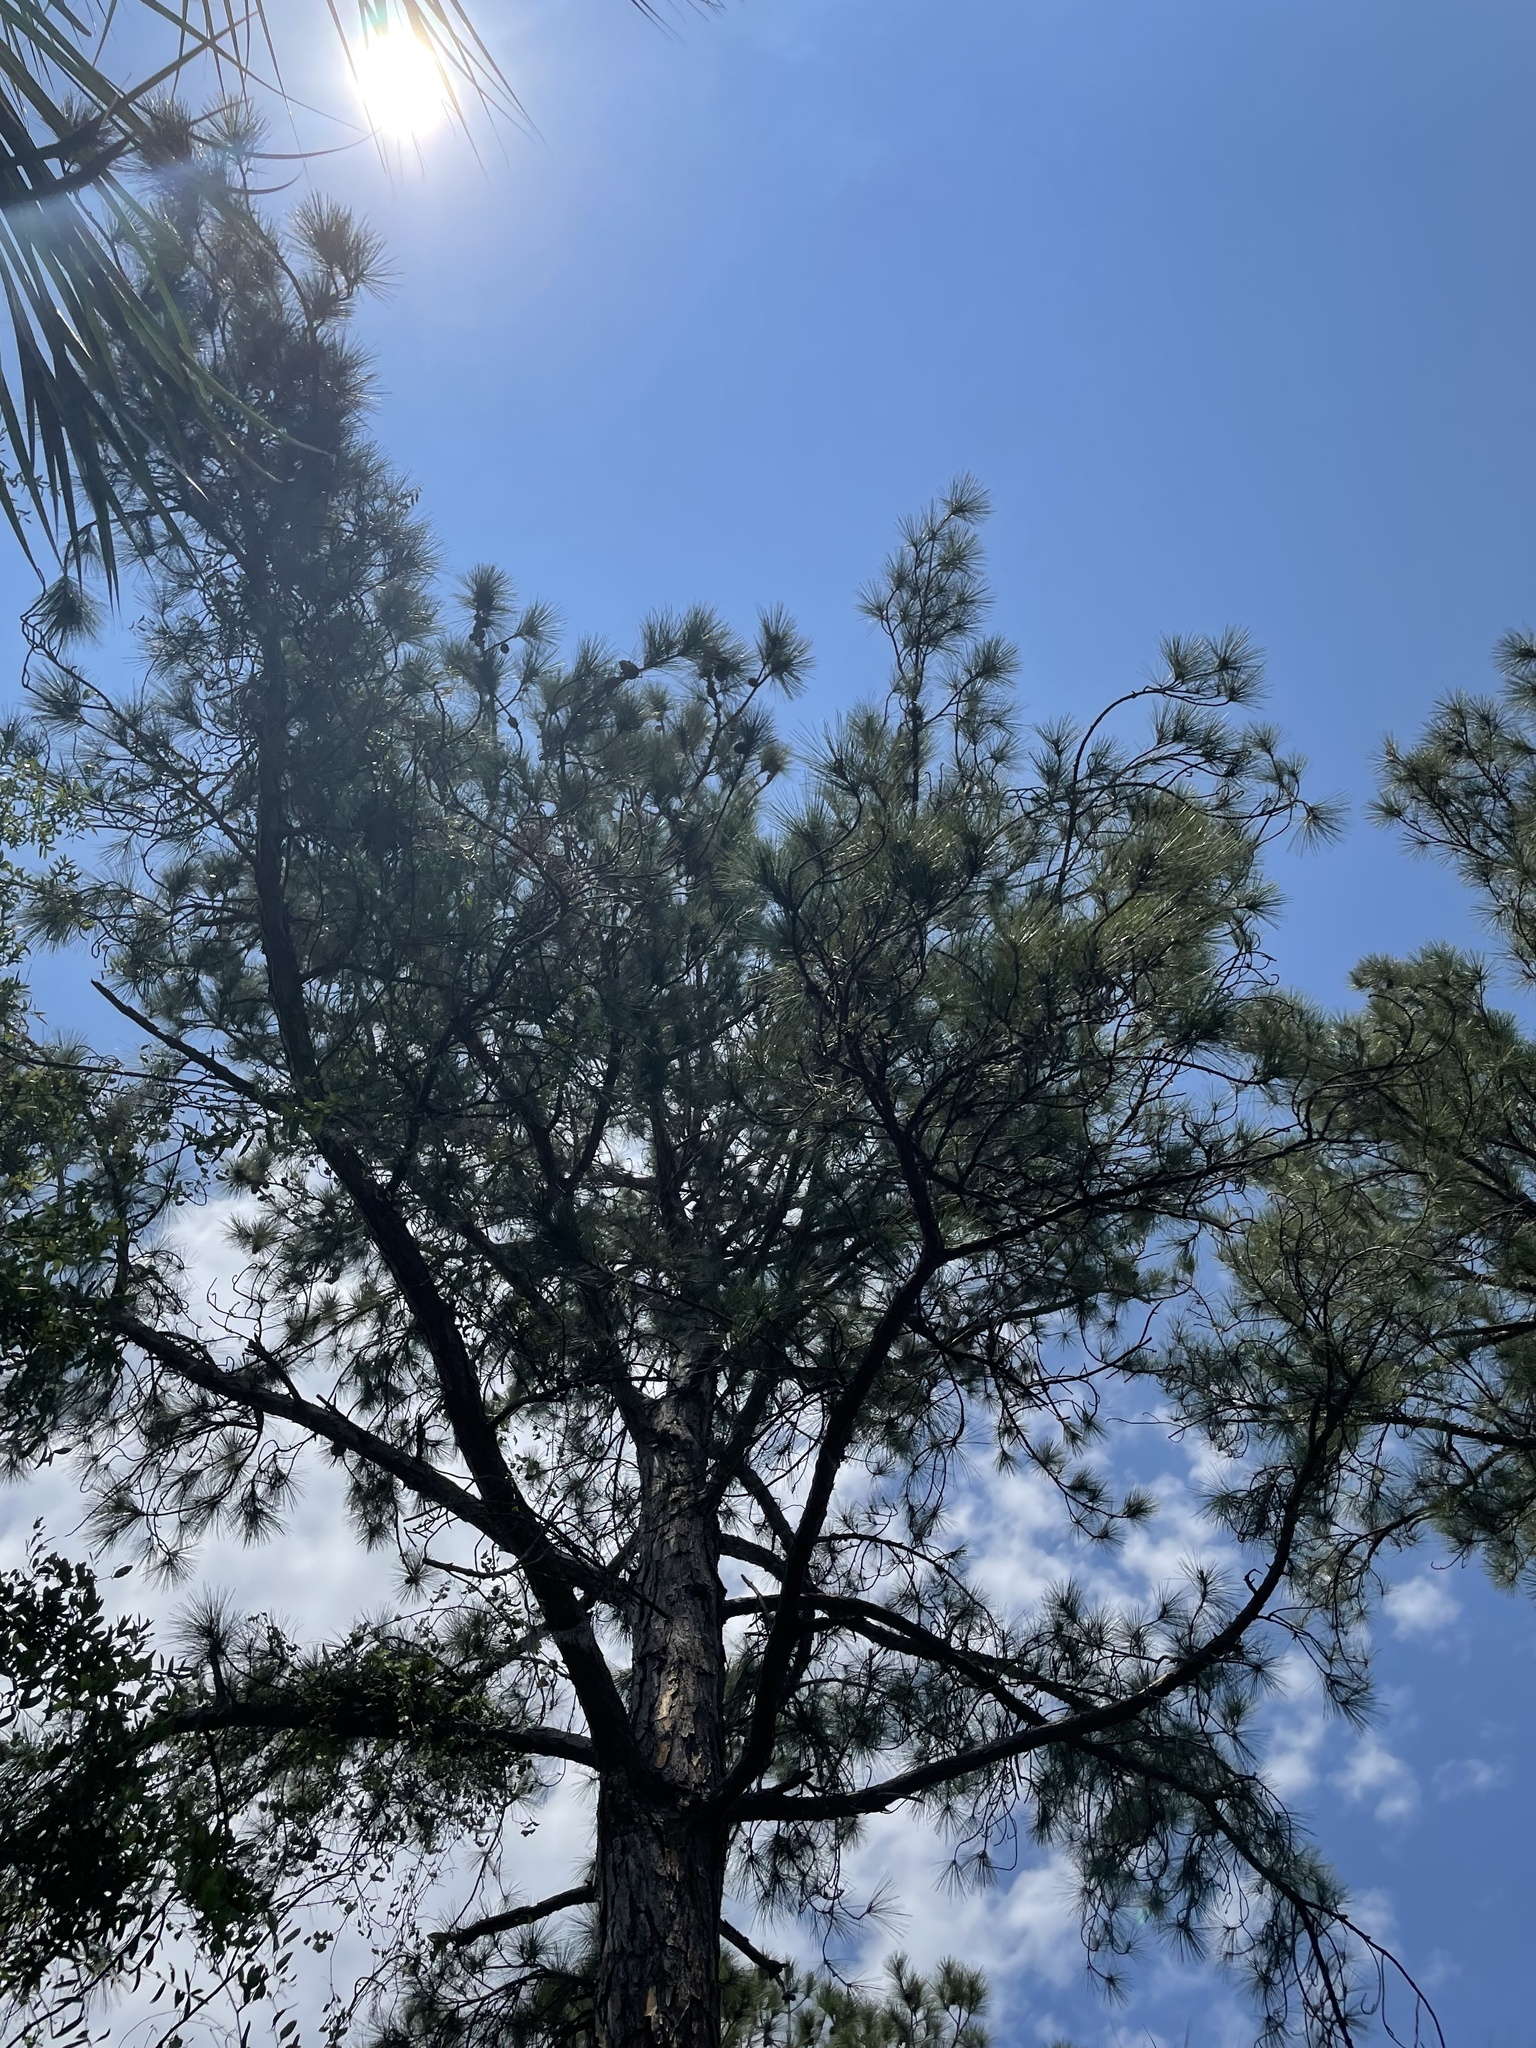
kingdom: Plantae
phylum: Tracheophyta
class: Pinopsida
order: Pinales
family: Pinaceae
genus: Pinus
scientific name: Pinus elliottii
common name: Slash pine
